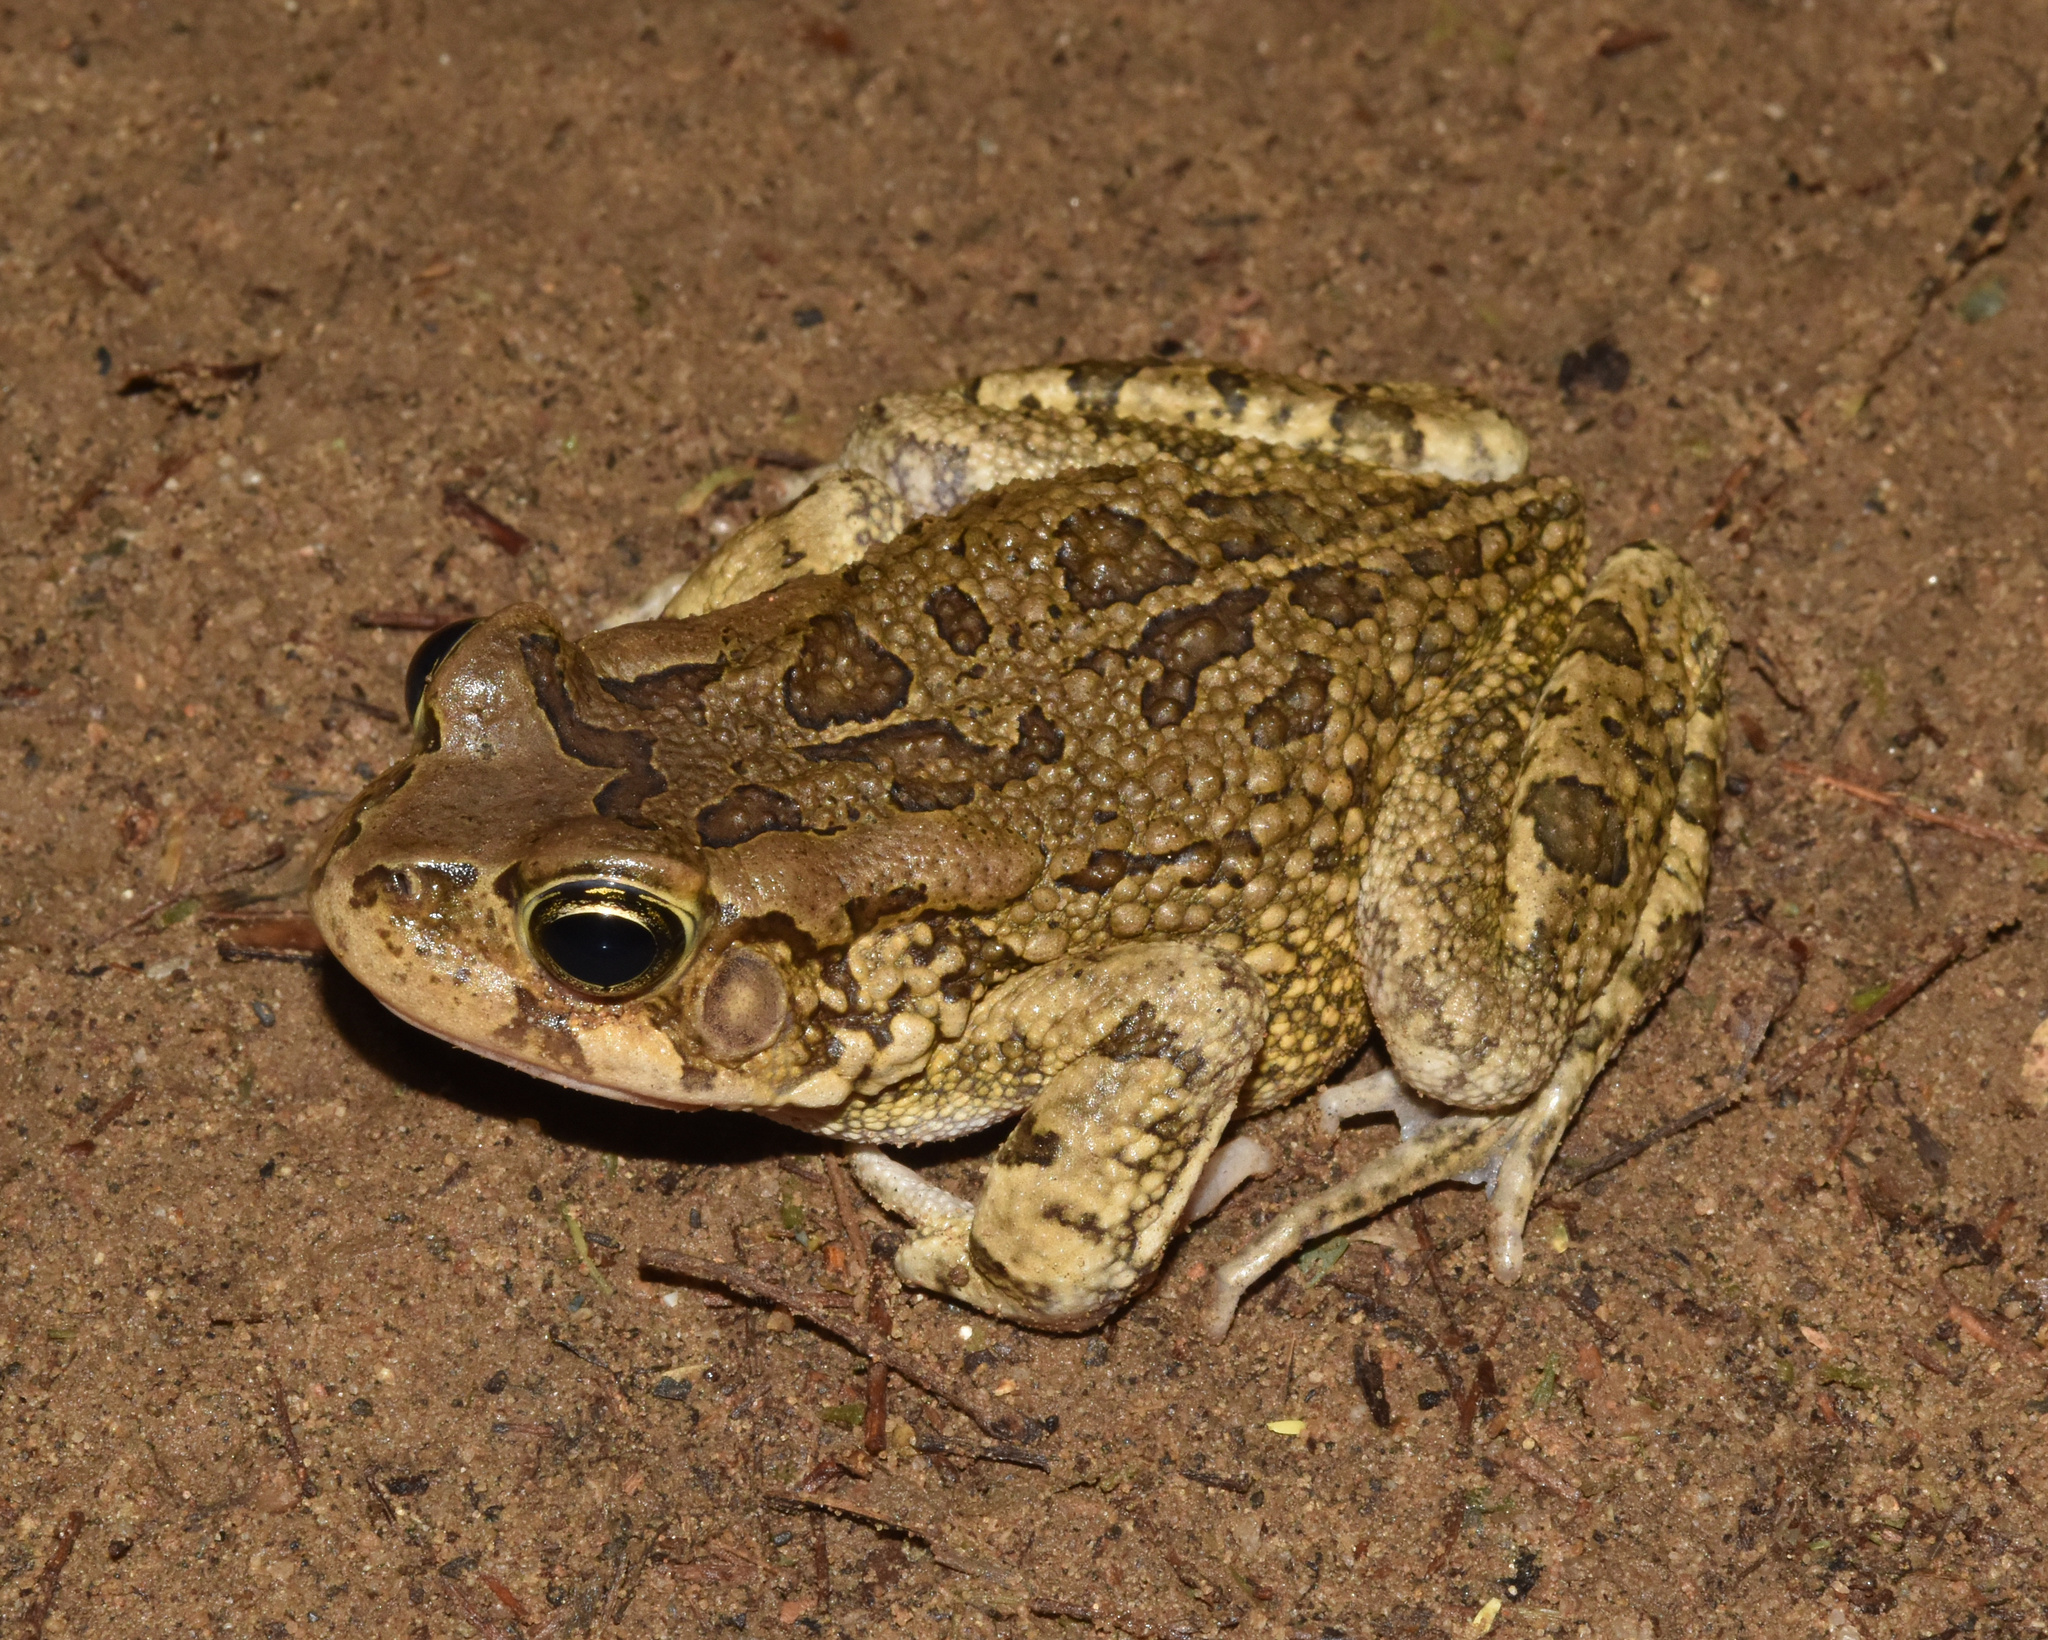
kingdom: Animalia
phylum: Chordata
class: Amphibia
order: Anura
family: Bufonidae
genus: Sclerophrys
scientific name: Sclerophrys capensis
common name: Ranger’s toad
